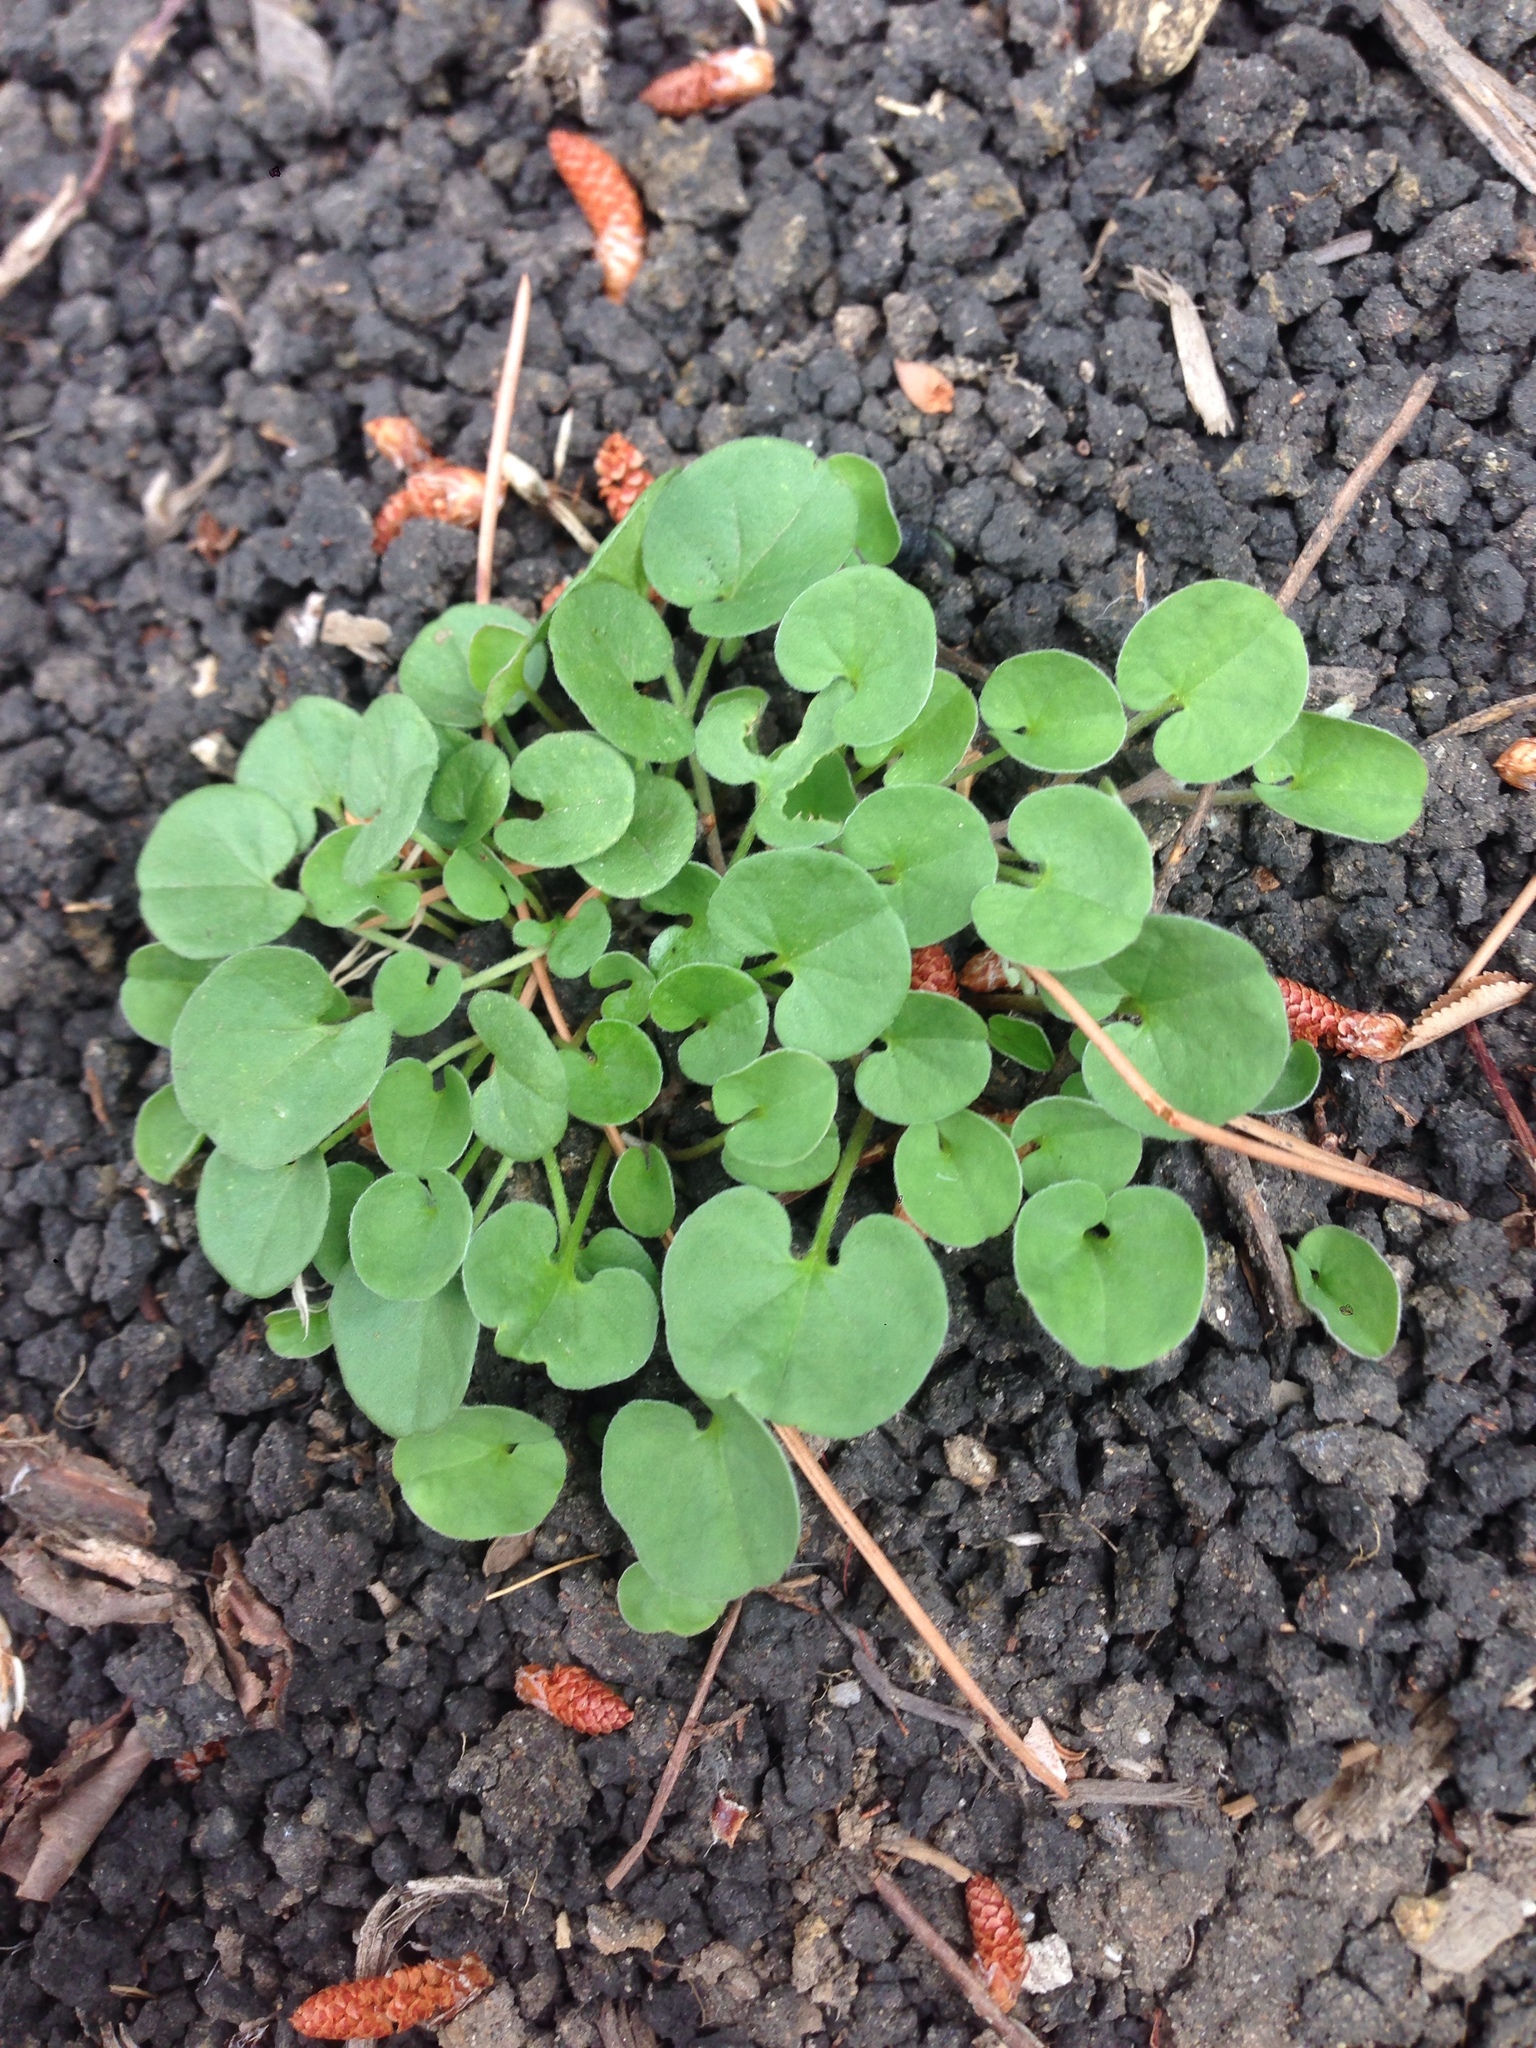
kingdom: Plantae
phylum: Tracheophyta
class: Magnoliopsida
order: Solanales
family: Convolvulaceae
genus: Dichondra
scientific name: Dichondra micrantha
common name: Kidneyweed
